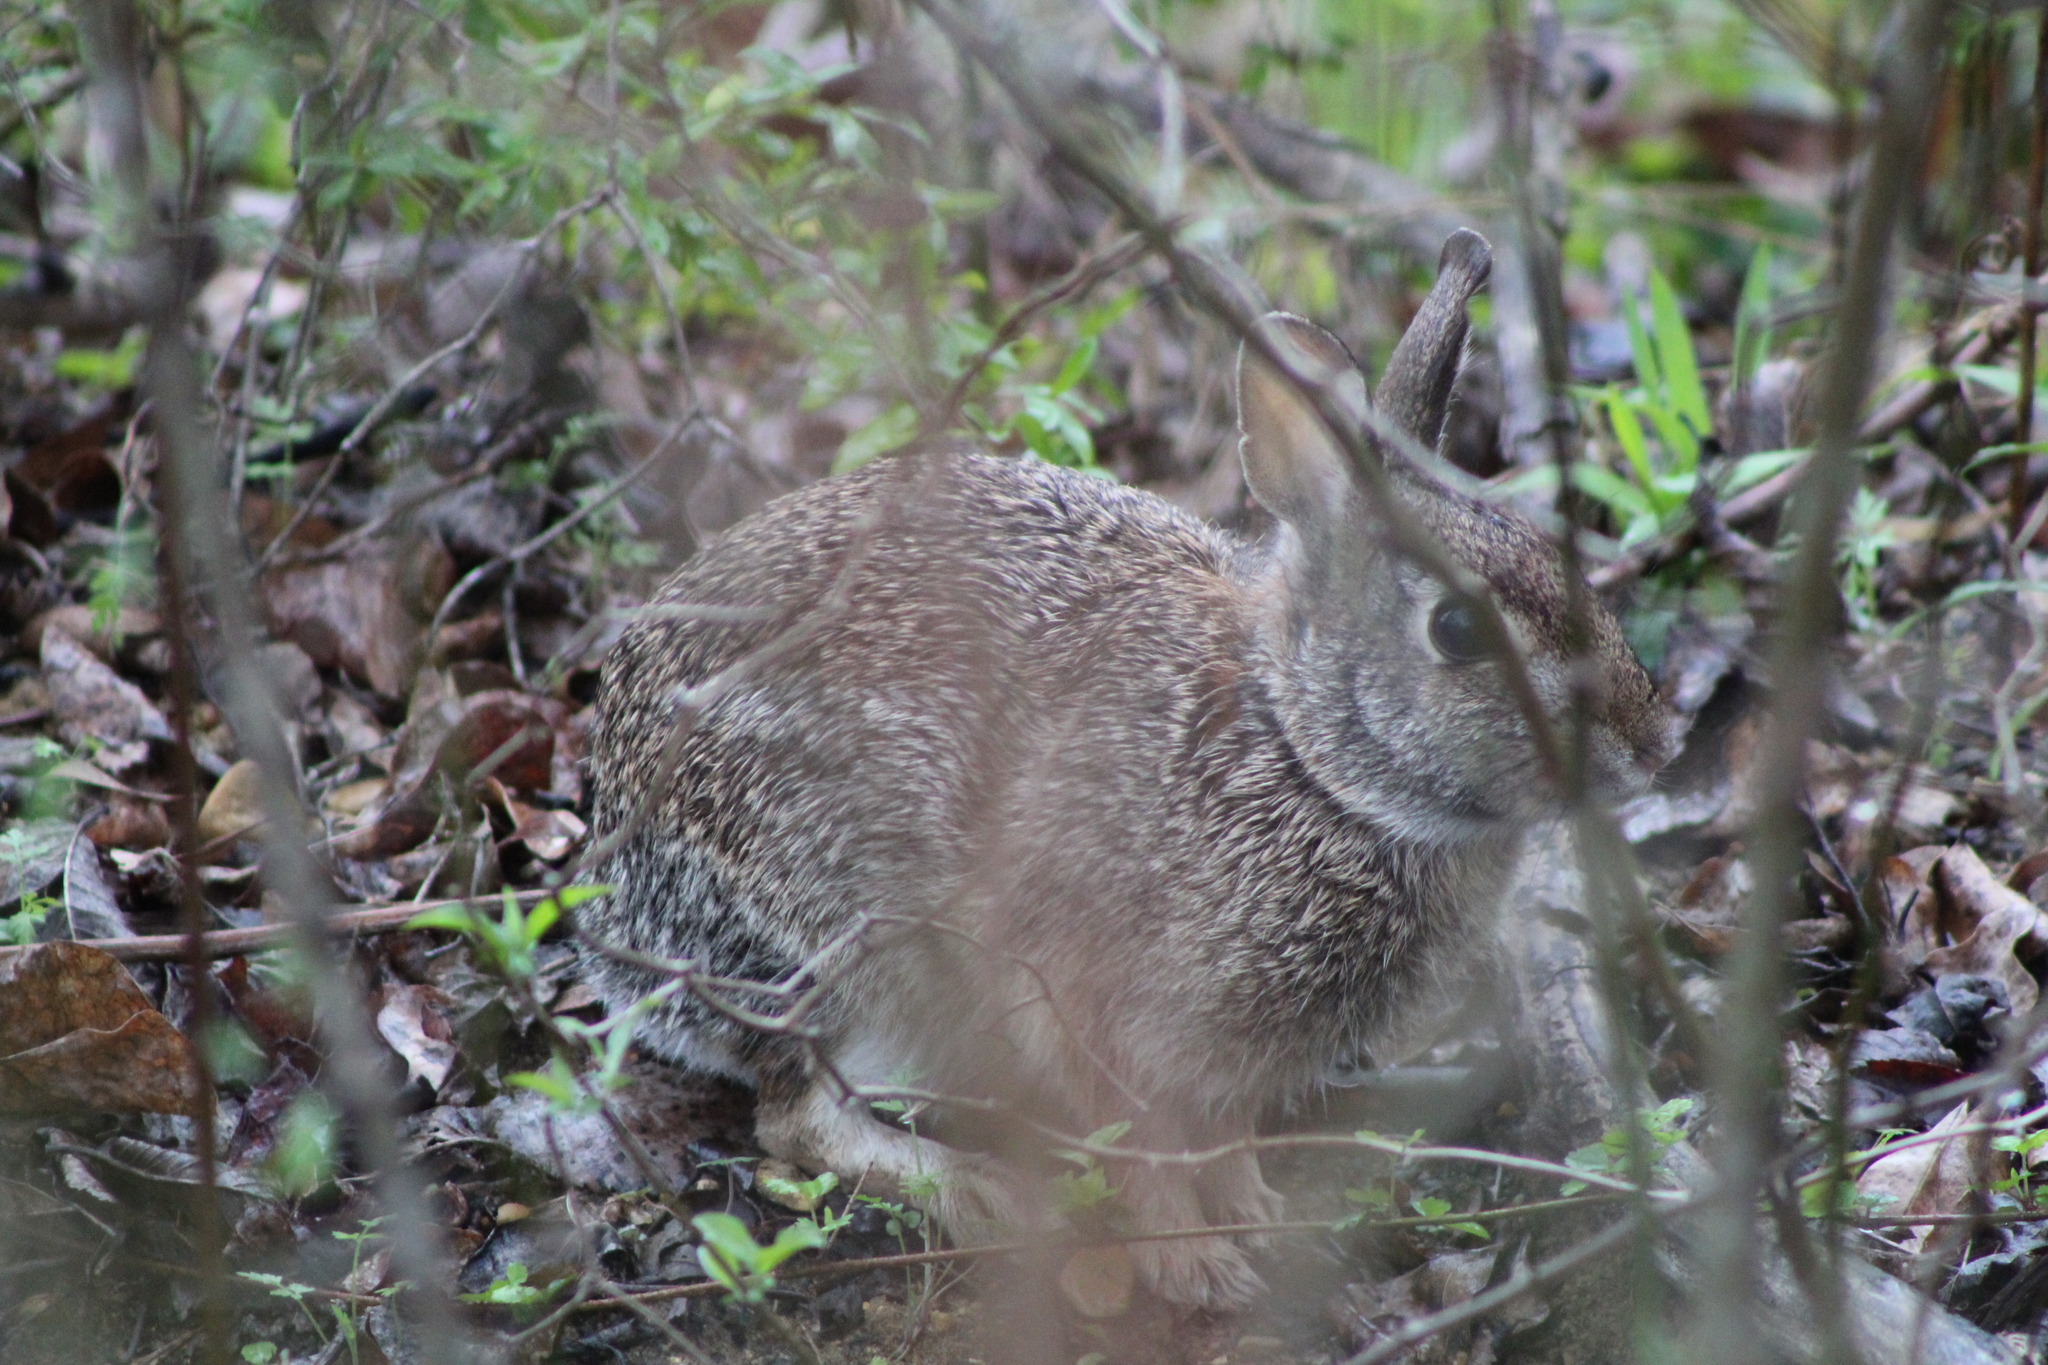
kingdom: Animalia
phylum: Chordata
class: Mammalia
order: Lagomorpha
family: Leporidae
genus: Sylvilagus
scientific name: Sylvilagus floridanus
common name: Eastern cottontail
